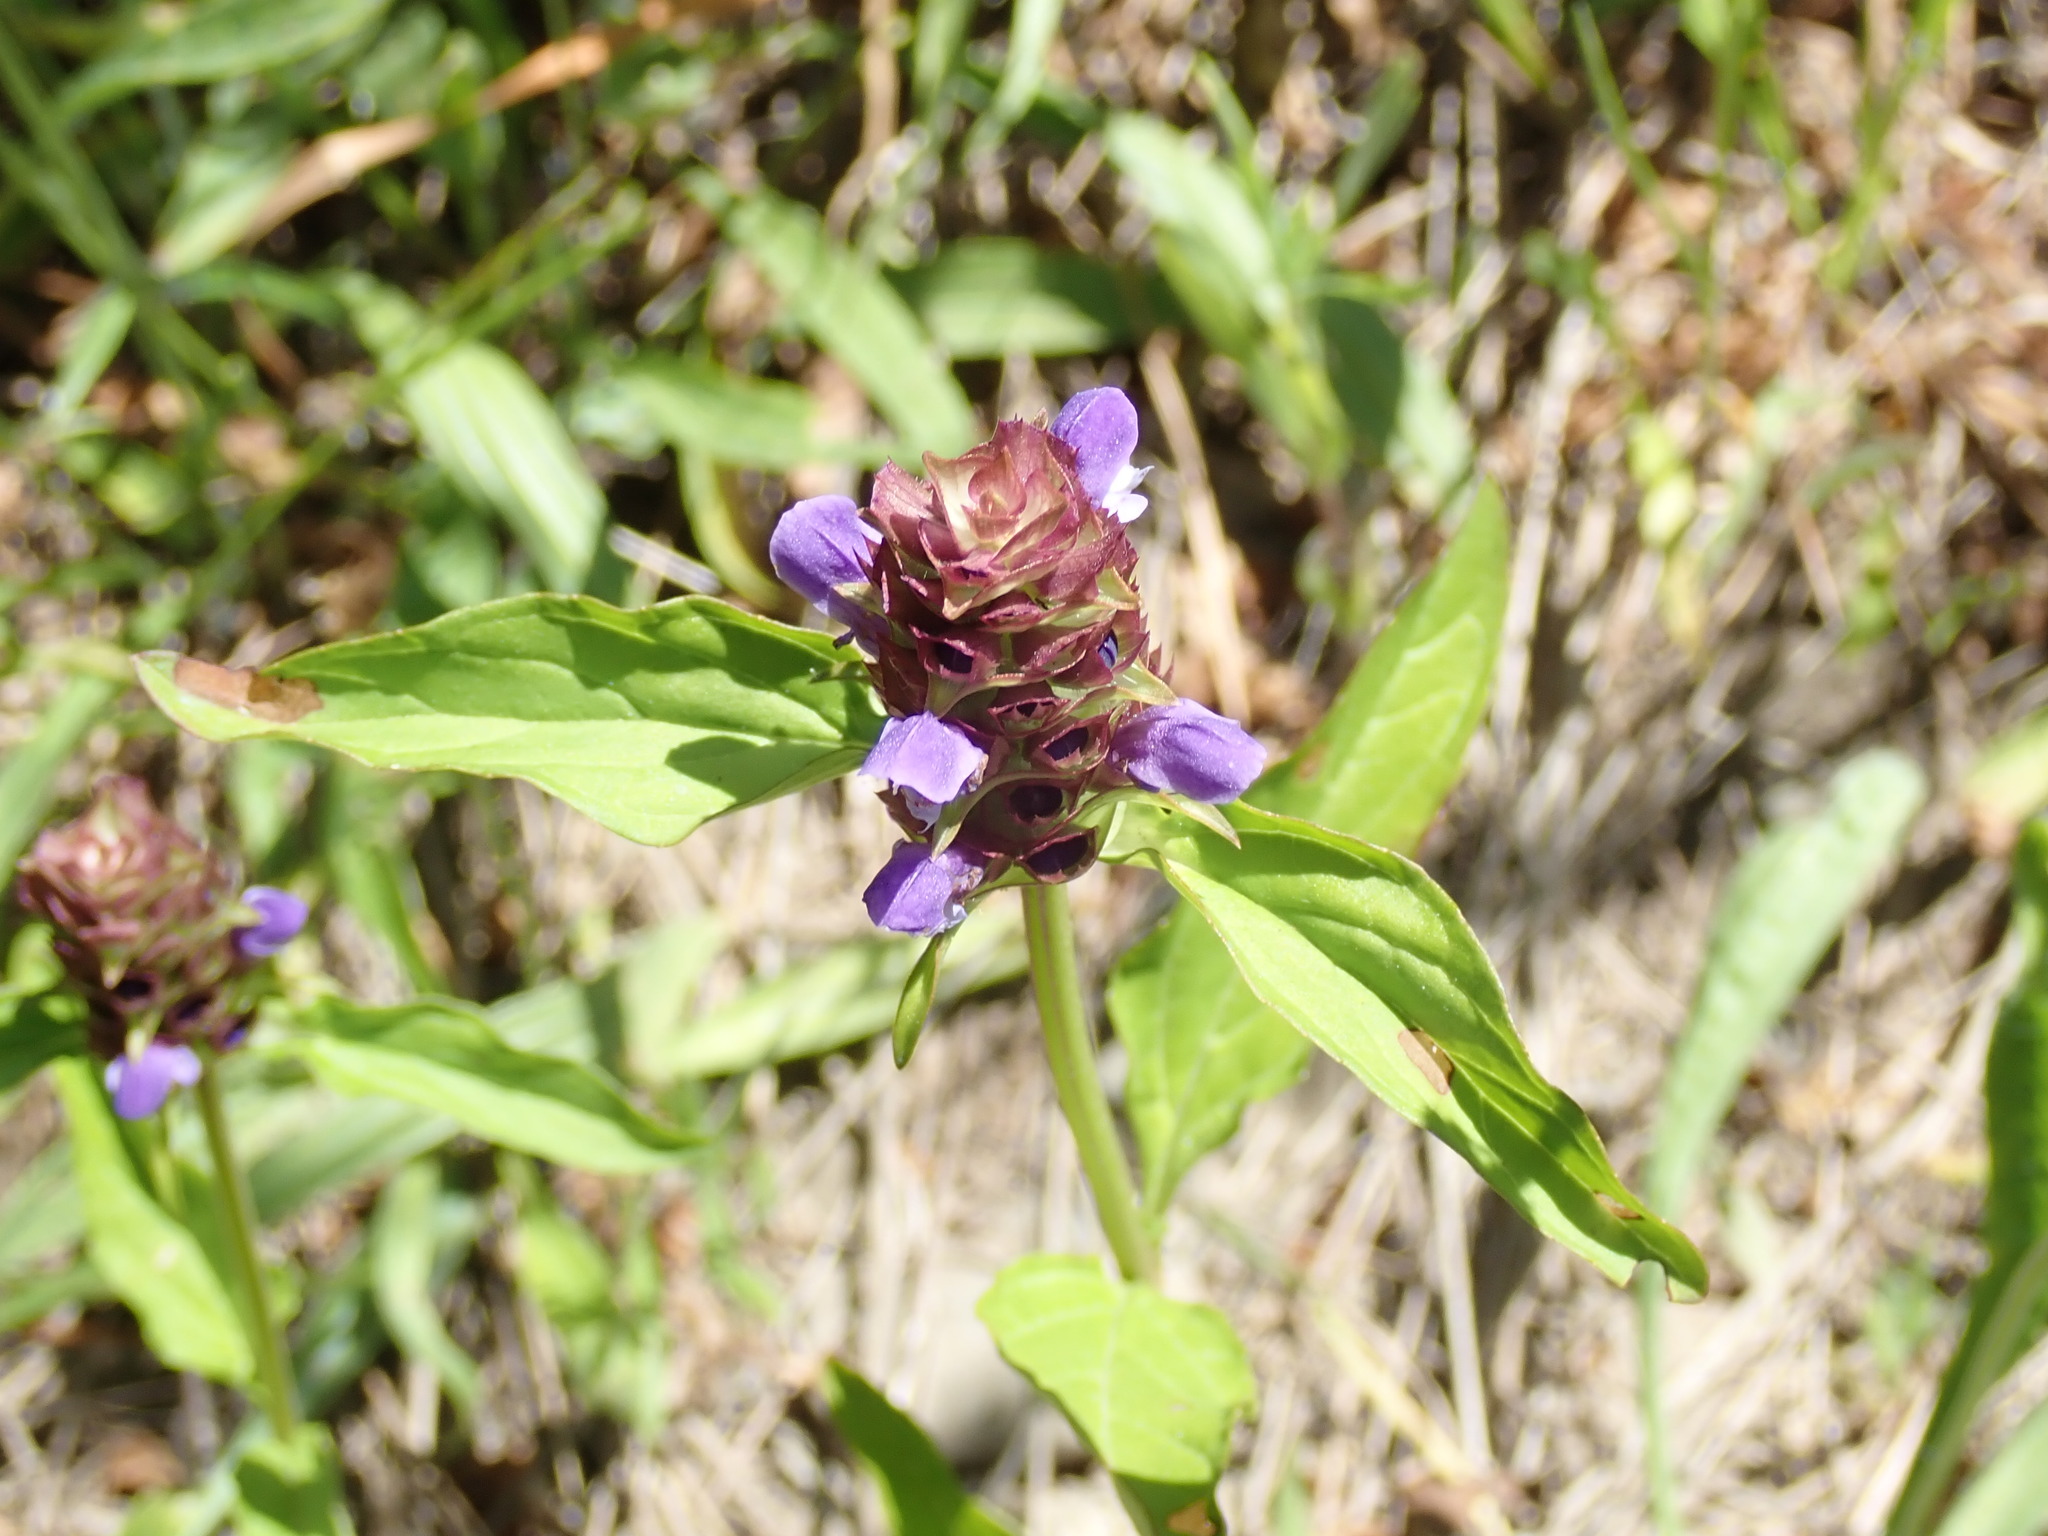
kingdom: Plantae
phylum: Tracheophyta
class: Magnoliopsida
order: Lamiales
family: Lamiaceae
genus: Prunella
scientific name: Prunella vulgaris
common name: Heal-all
